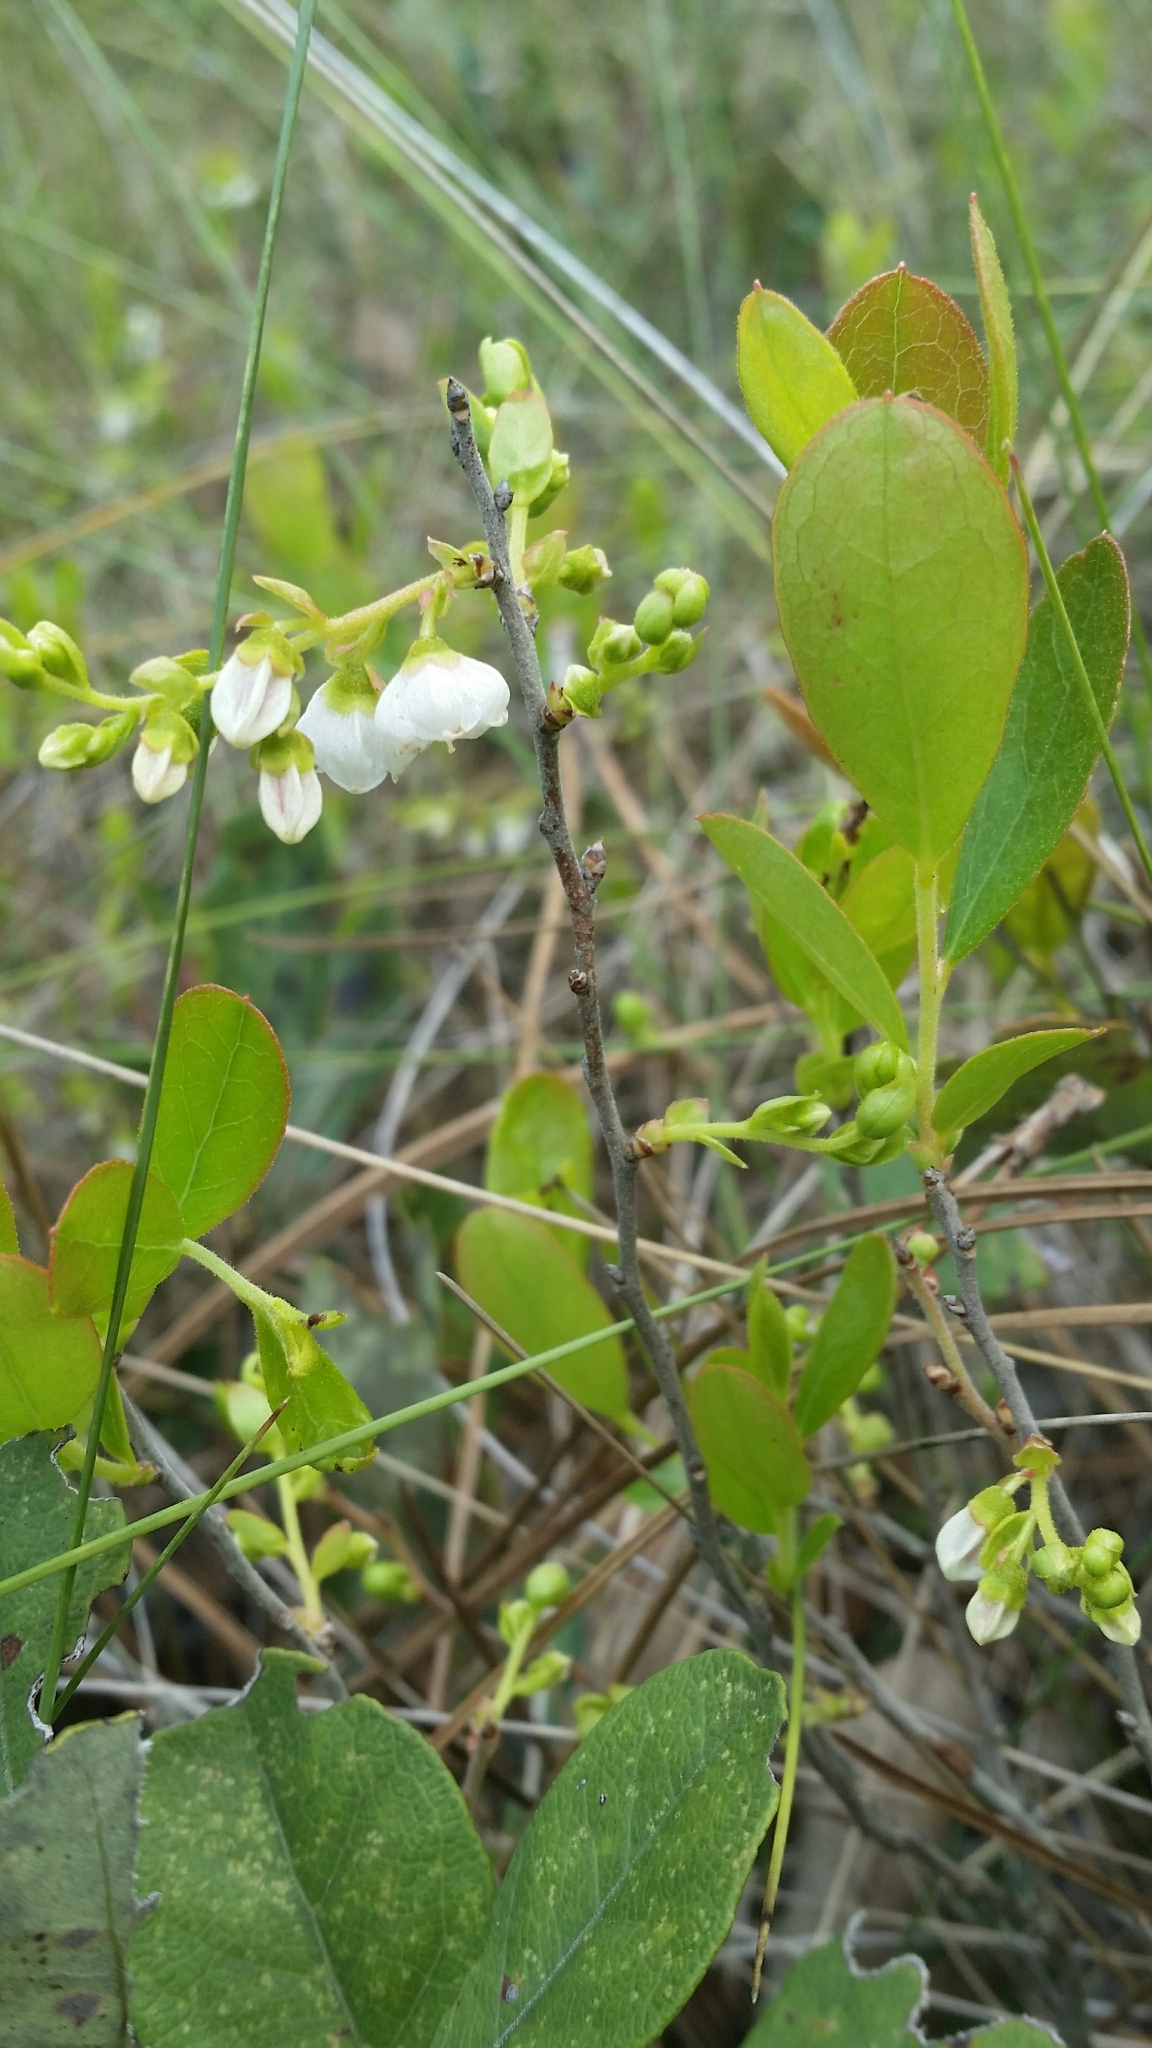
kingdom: Plantae
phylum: Tracheophyta
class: Magnoliopsida
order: Ericales
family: Ericaceae
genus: Gaylussacia
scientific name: Gaylussacia dumosa
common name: Dwarf huckleberry
